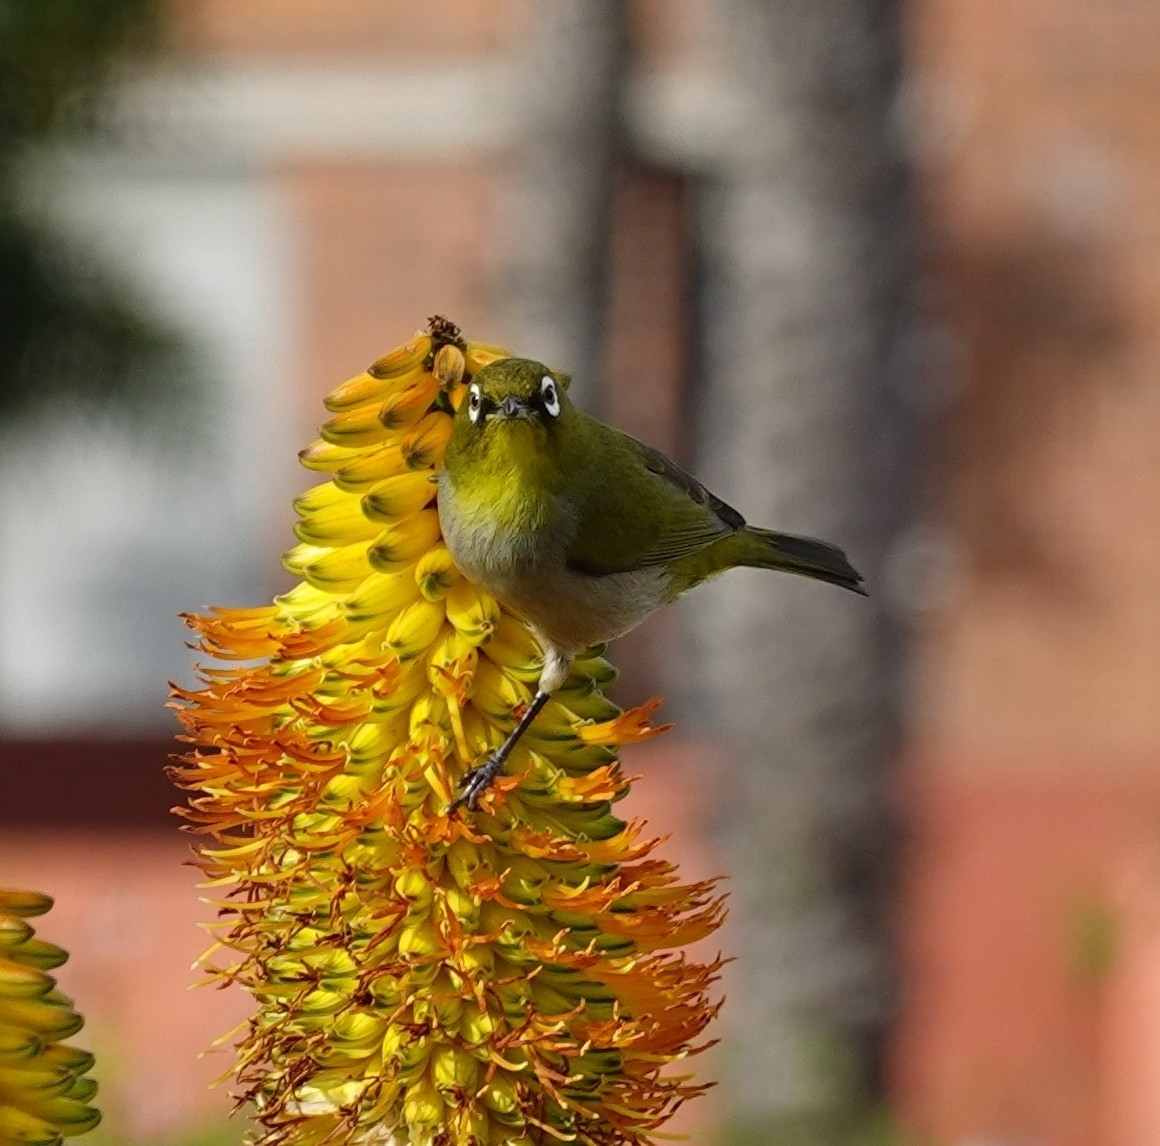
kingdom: Animalia
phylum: Chordata
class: Aves
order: Passeriformes
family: Zosteropidae
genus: Zosterops
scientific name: Zosterops virens
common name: Cape white-eye
